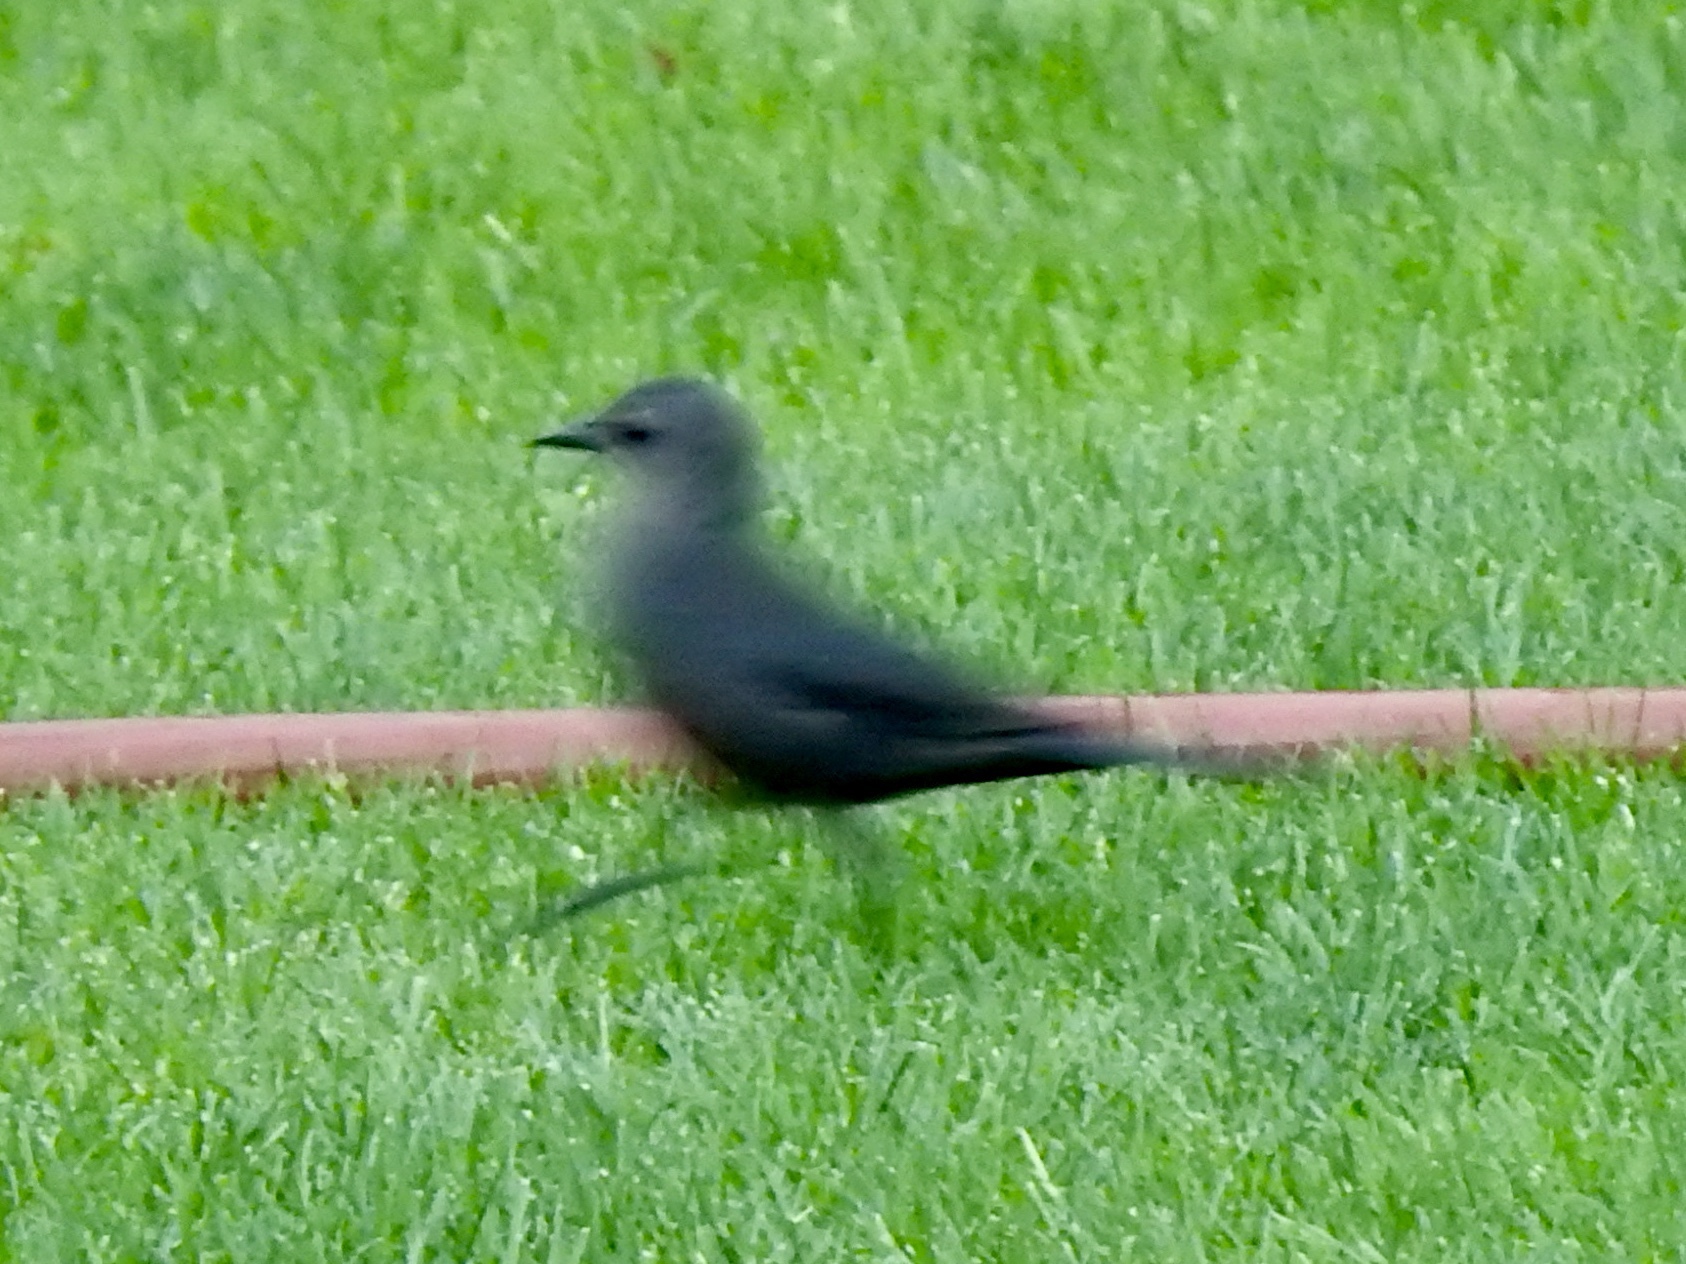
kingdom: Animalia
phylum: Chordata
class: Aves
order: Passeriformes
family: Icteridae
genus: Euphagus
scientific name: Euphagus cyanocephalus
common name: Brewer's blackbird
